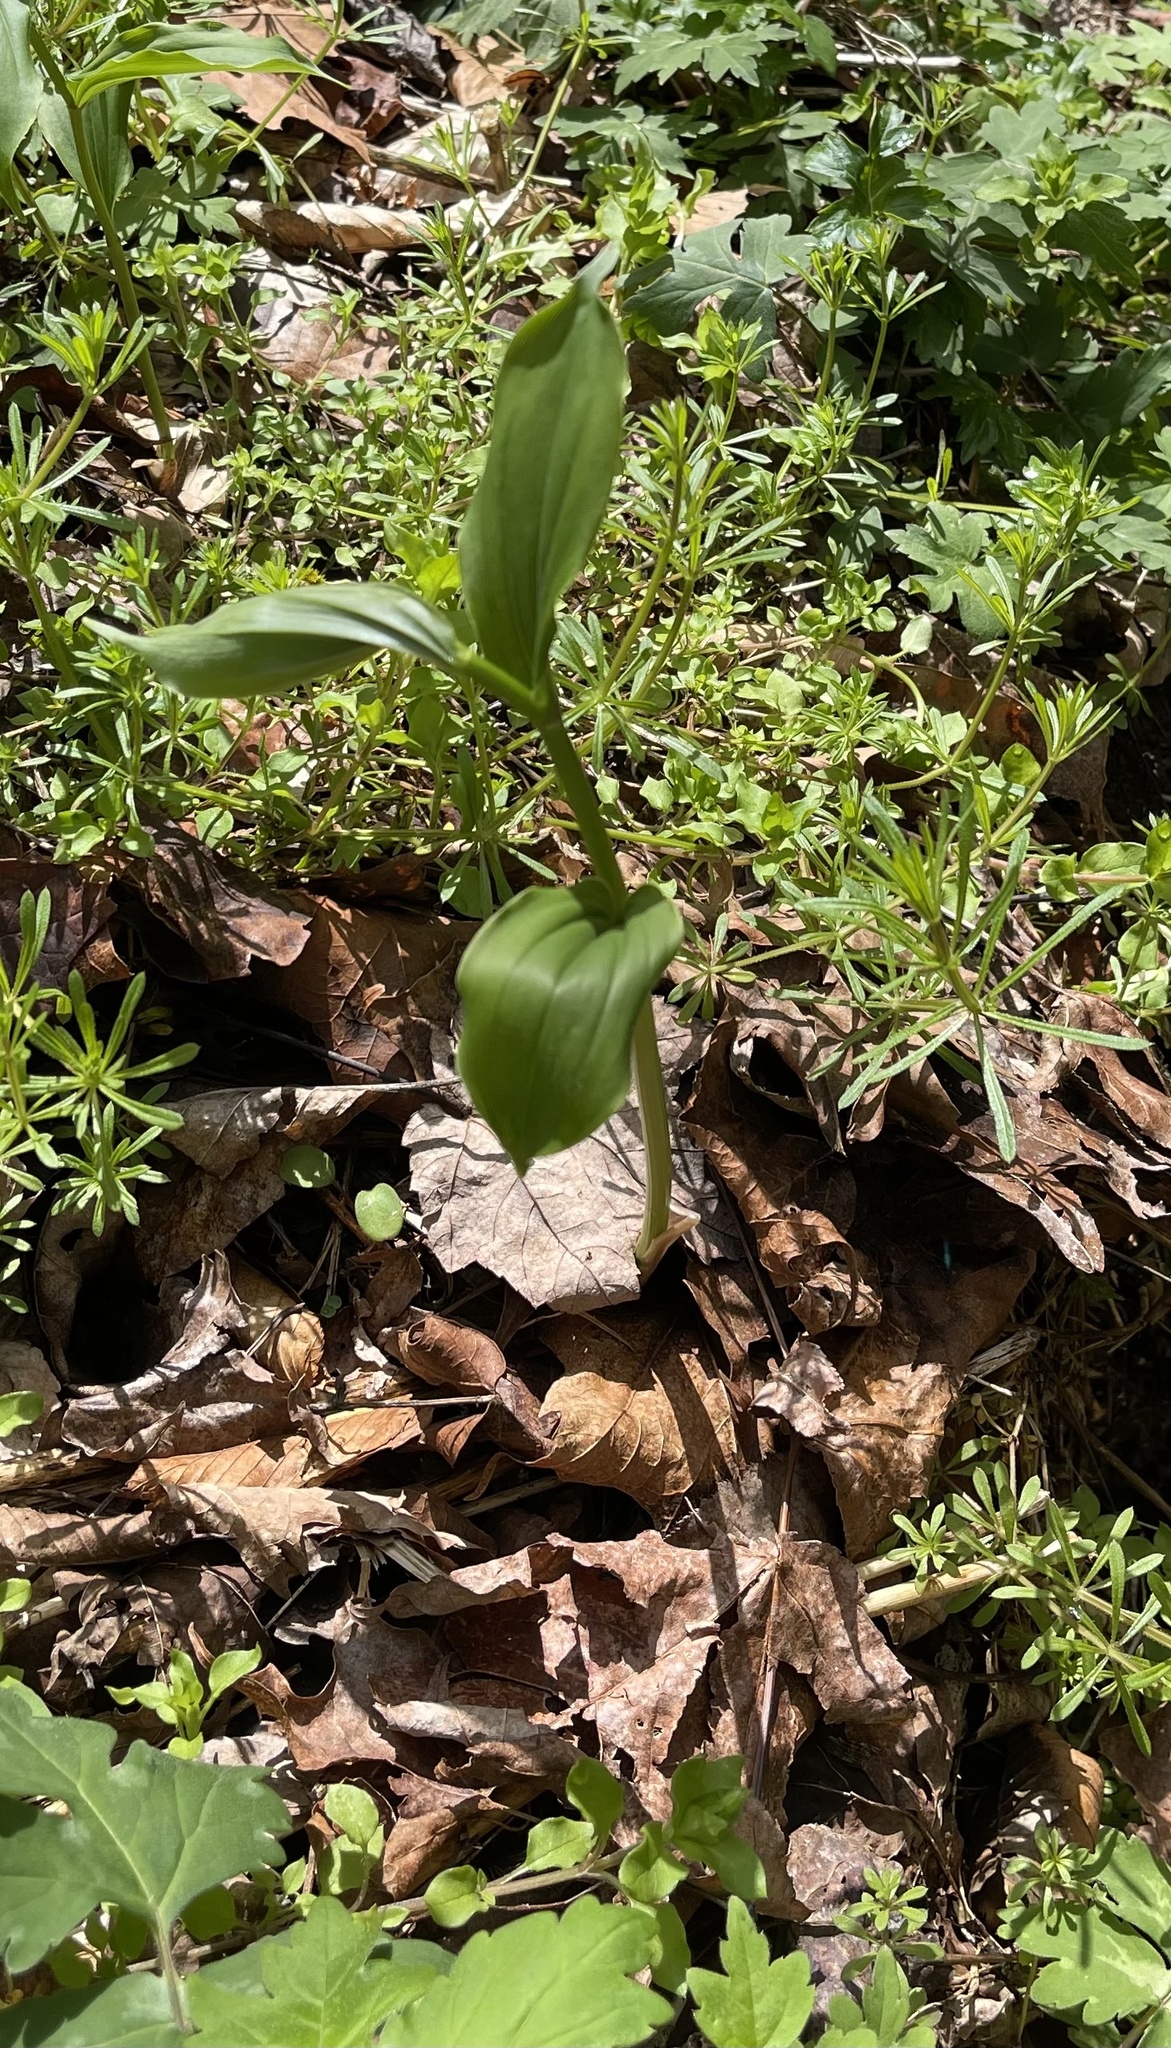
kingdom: Plantae
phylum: Tracheophyta
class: Liliopsida
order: Asparagales
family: Asparagaceae
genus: Maianthemum
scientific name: Maianthemum racemosum
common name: False spikenard
